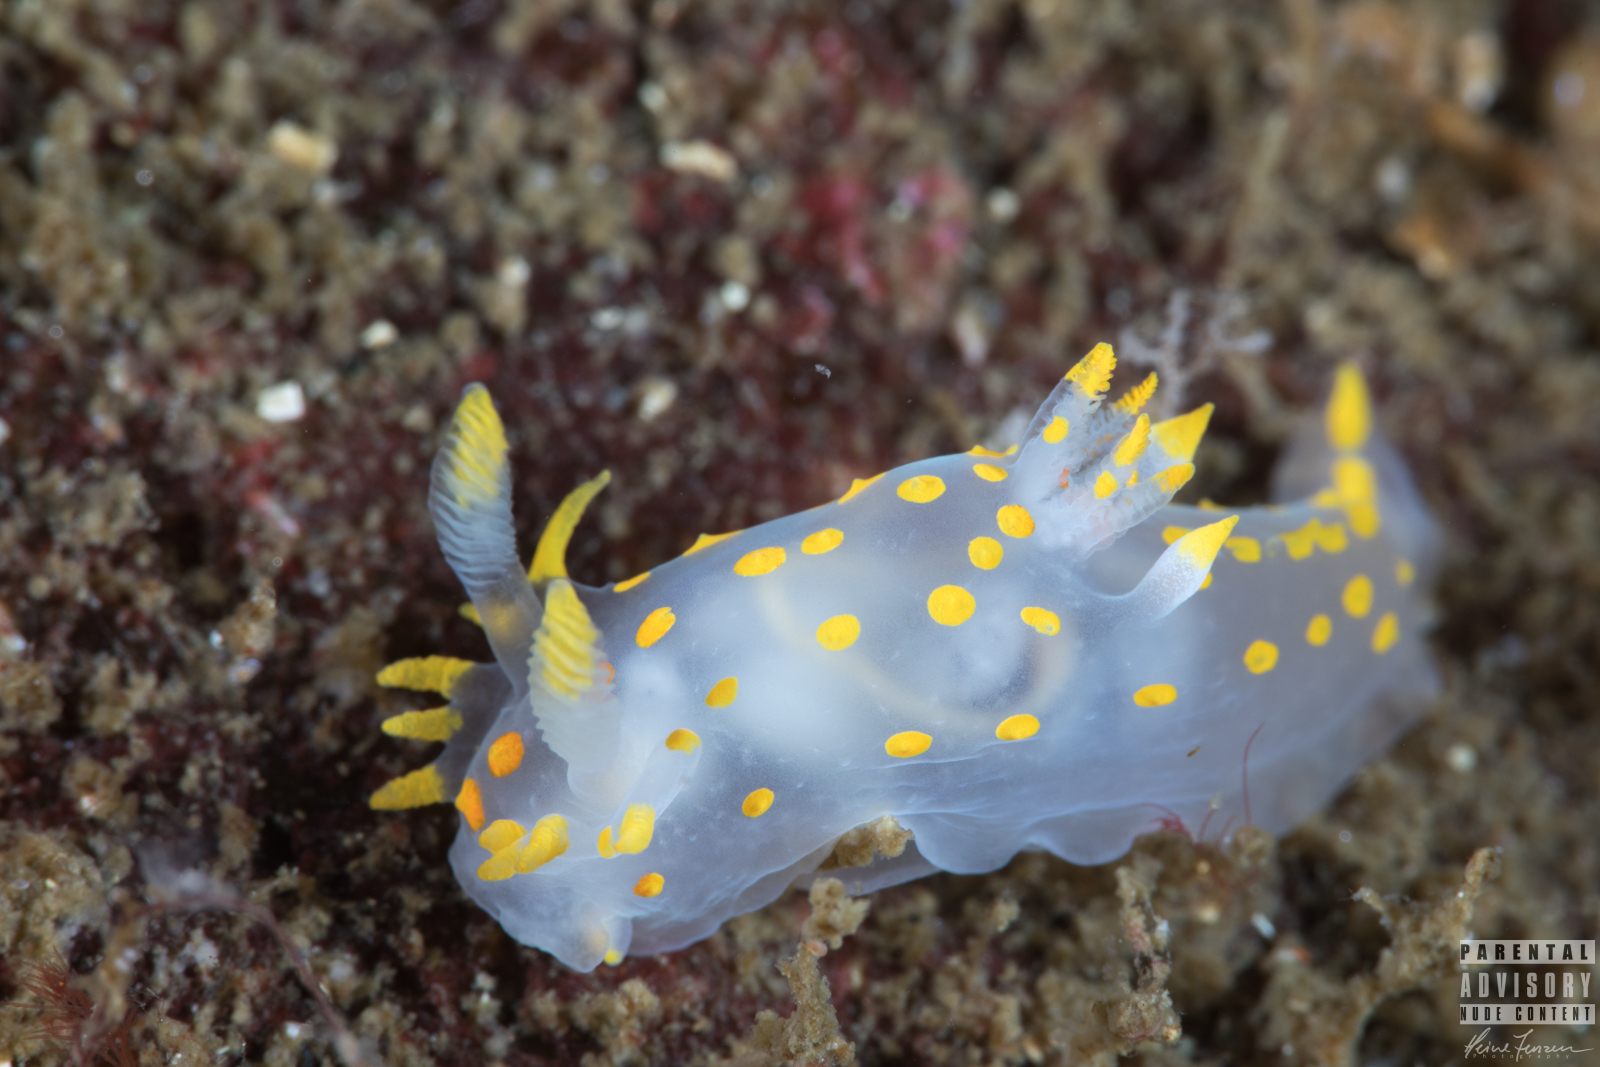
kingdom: Animalia
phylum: Mollusca
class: Gastropoda
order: Nudibranchia
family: Polyceridae
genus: Polycera
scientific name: Polycera quadrilineata
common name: Four-striped polycera
